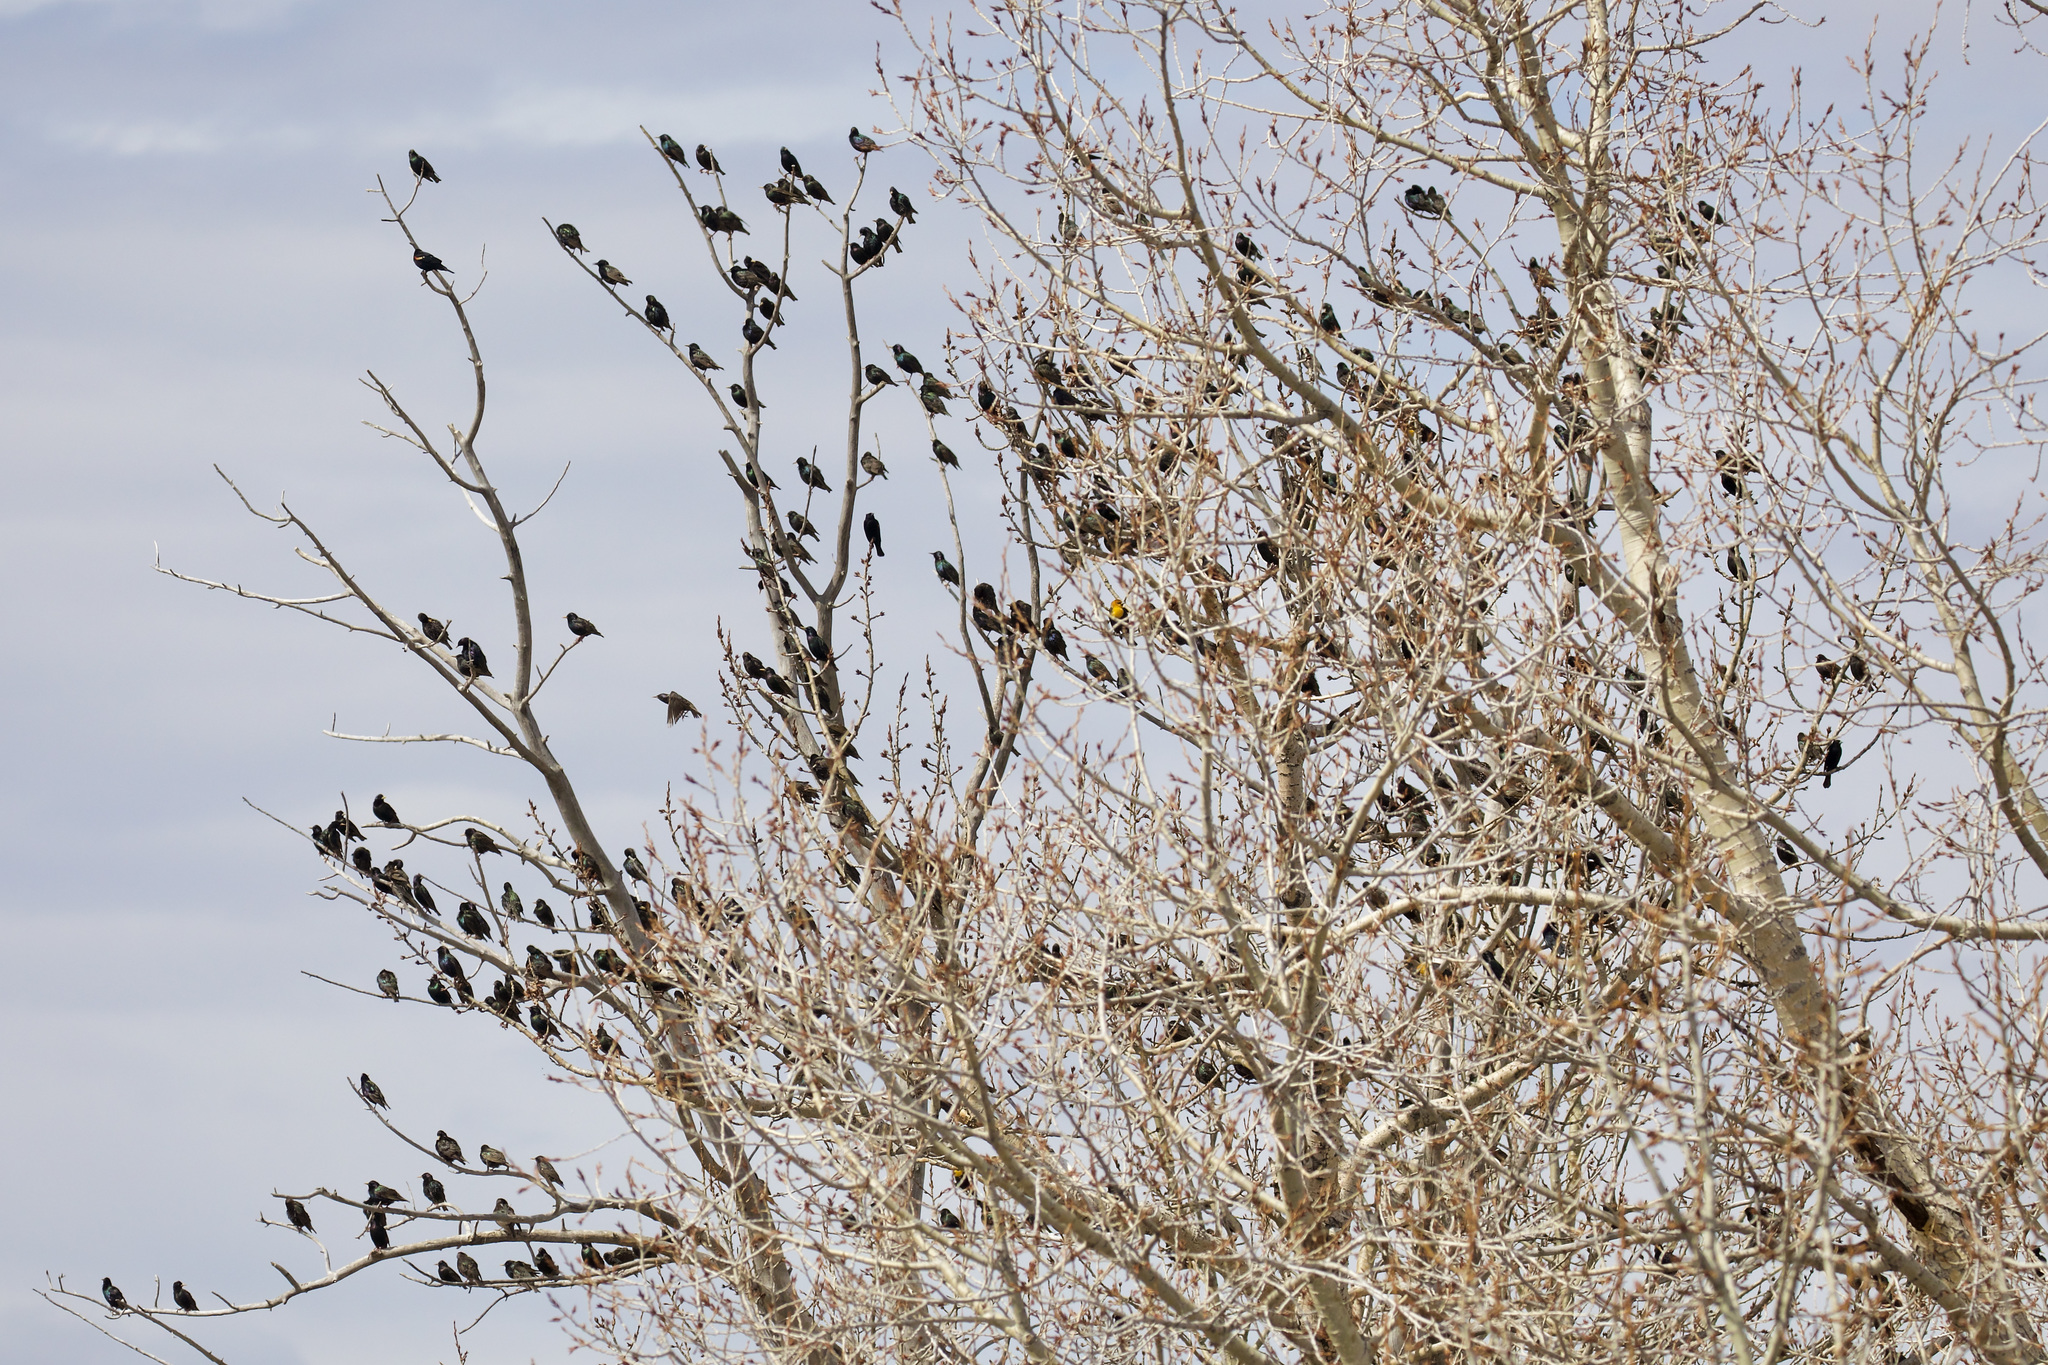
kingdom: Animalia
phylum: Chordata
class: Aves
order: Passeriformes
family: Sturnidae
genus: Sturnus
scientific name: Sturnus vulgaris
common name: Common starling
